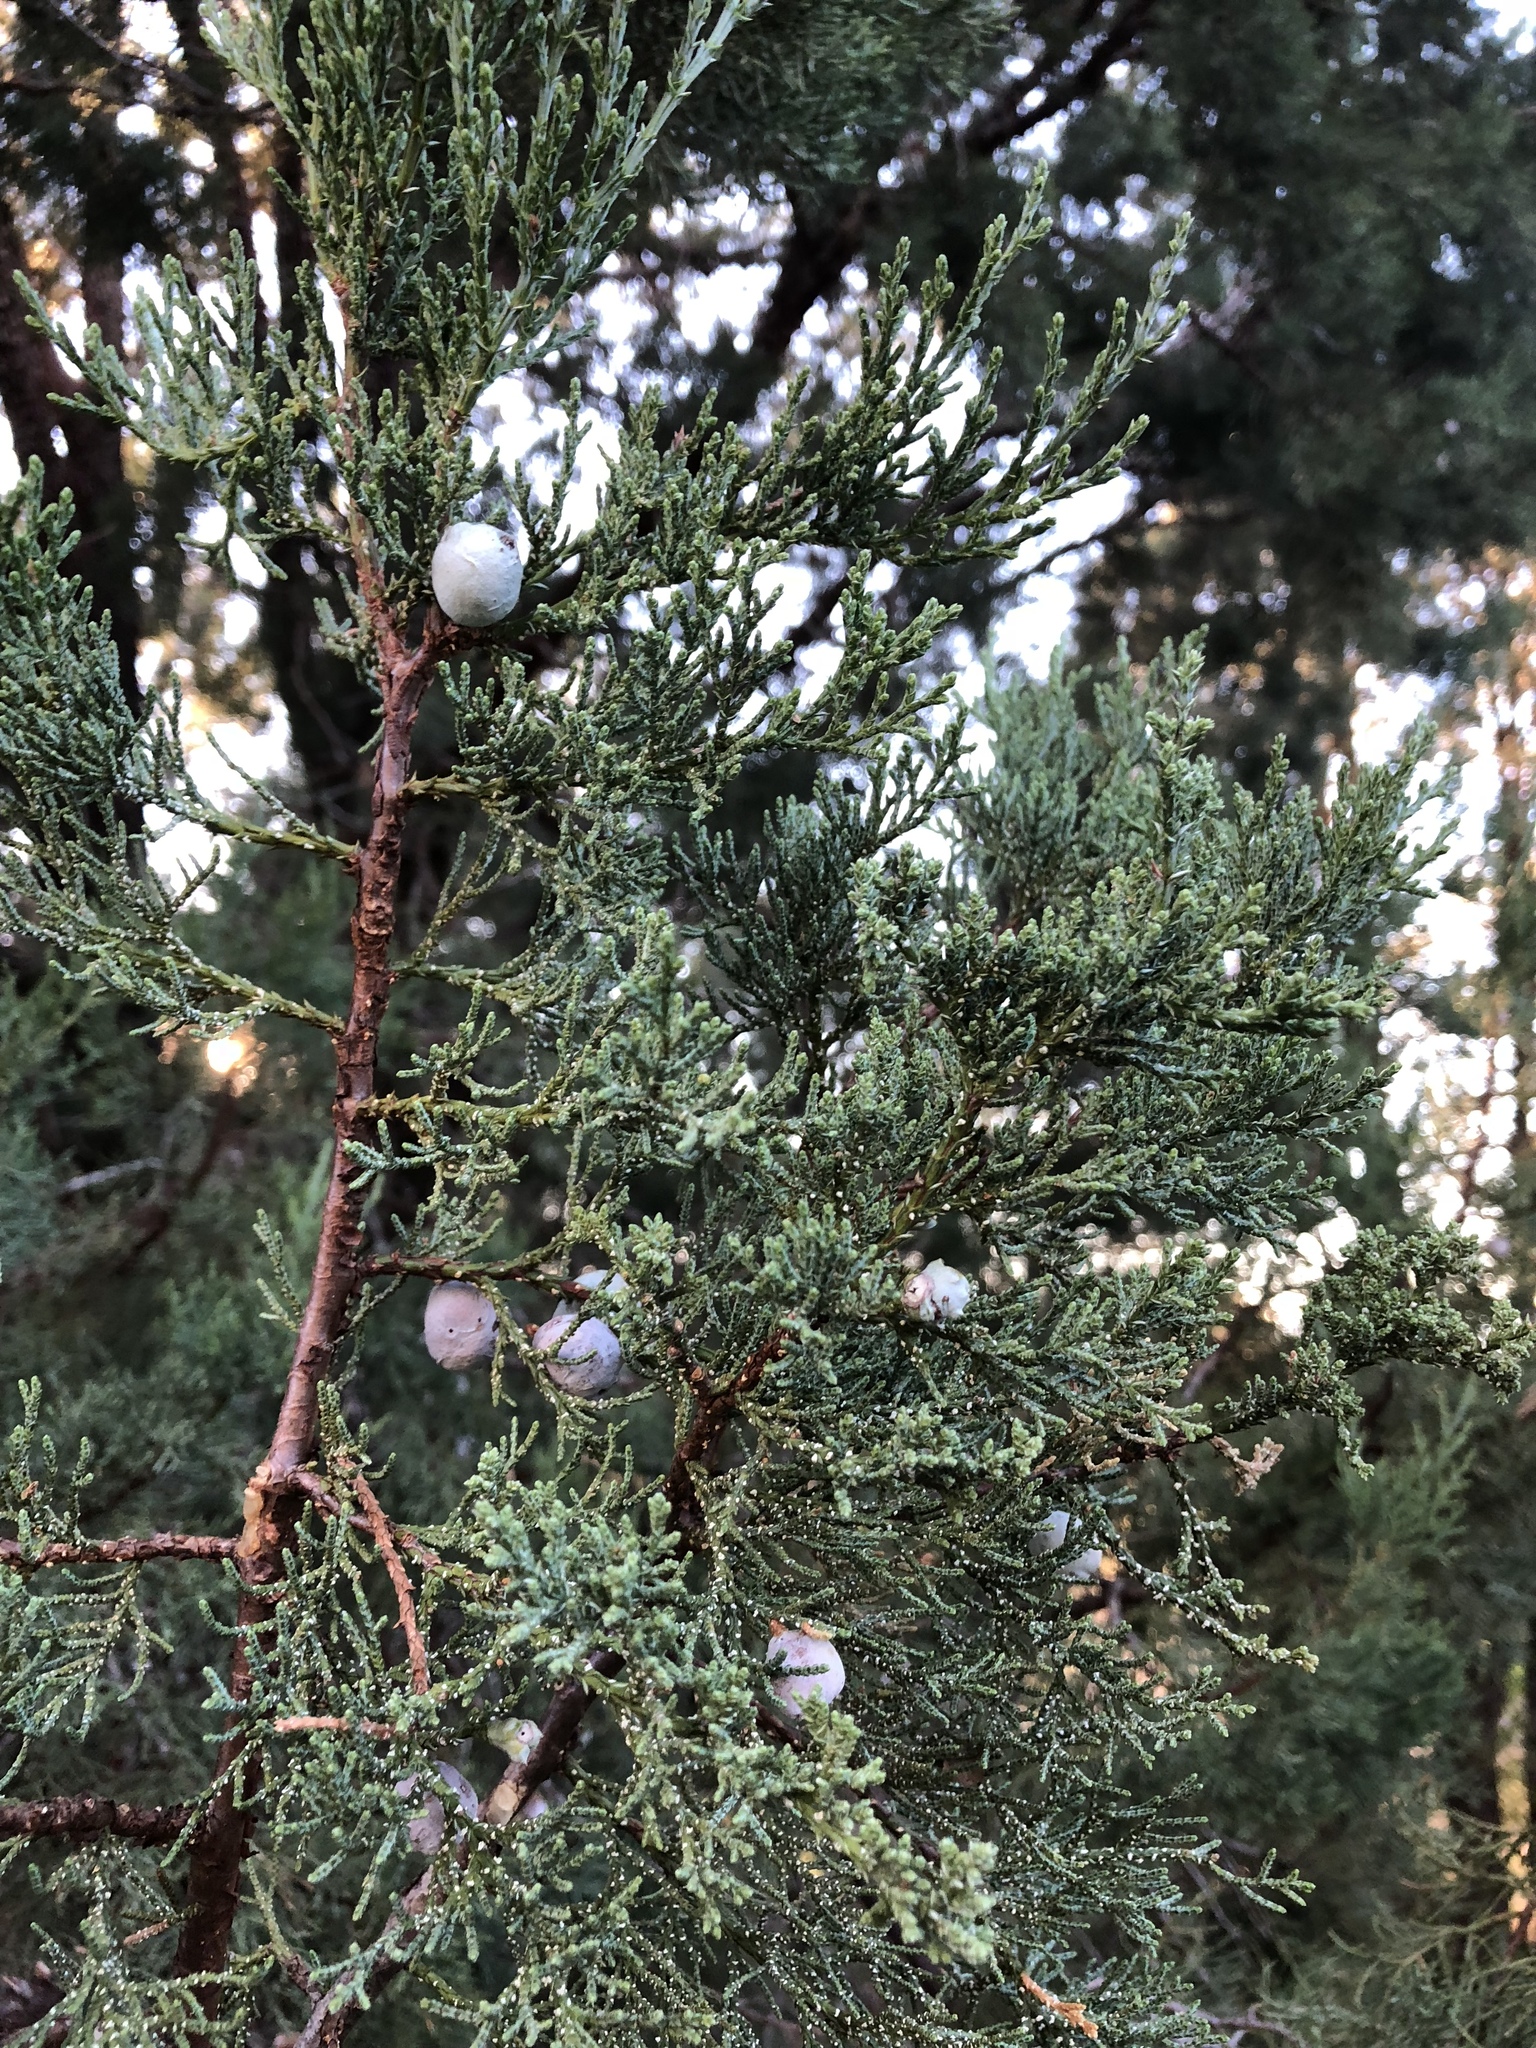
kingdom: Plantae
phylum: Tracheophyta
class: Pinopsida
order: Pinales
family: Cupressaceae
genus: Juniperus
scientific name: Juniperus deppeana
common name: Alligator juniper
